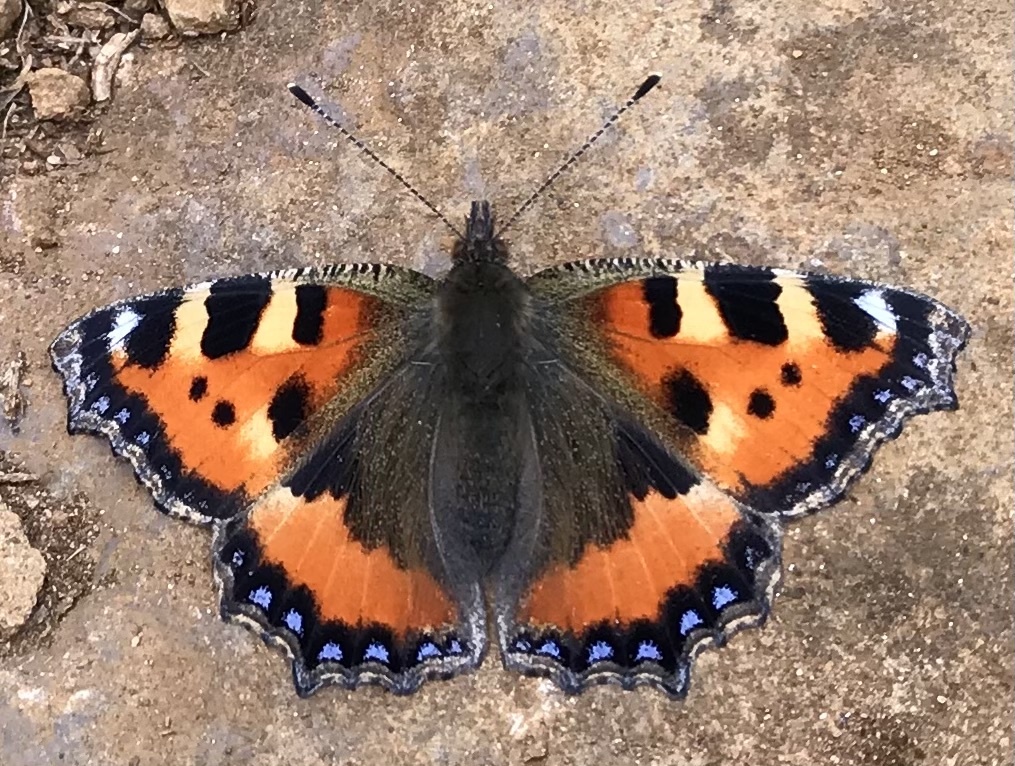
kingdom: Animalia
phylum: Arthropoda
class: Insecta
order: Lepidoptera
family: Nymphalidae
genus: Aglais
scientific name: Aglais urticae
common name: Small tortoiseshell
